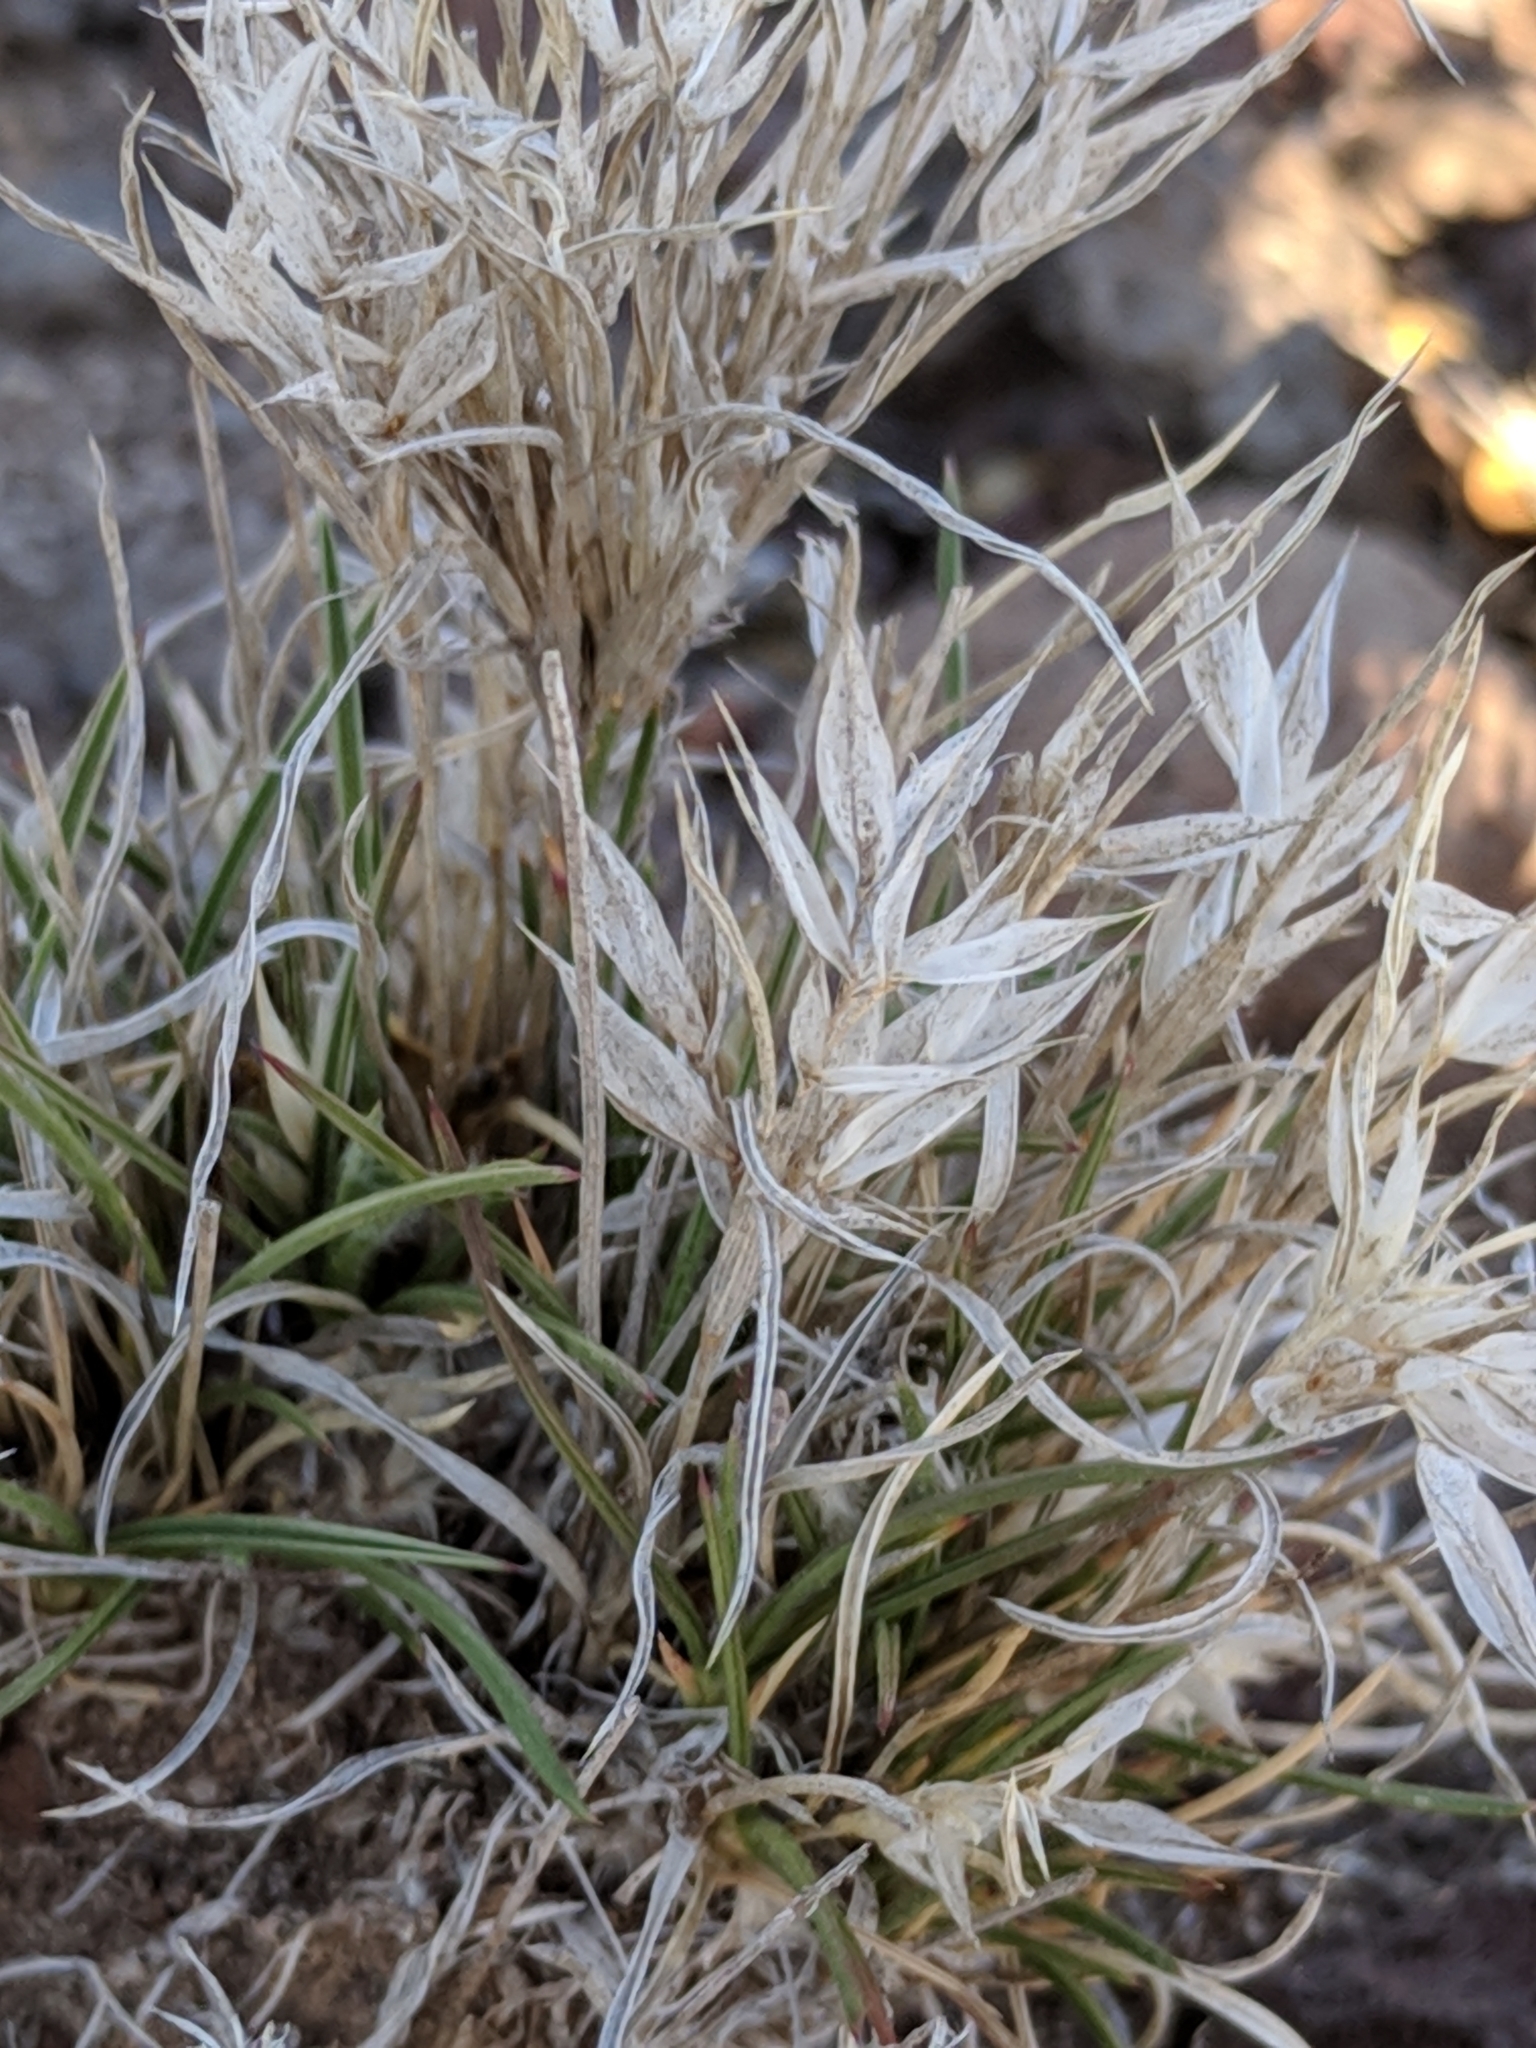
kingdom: Plantae
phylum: Tracheophyta
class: Liliopsida
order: Poales
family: Poaceae
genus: Dasyochloa
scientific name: Dasyochloa pulchella
